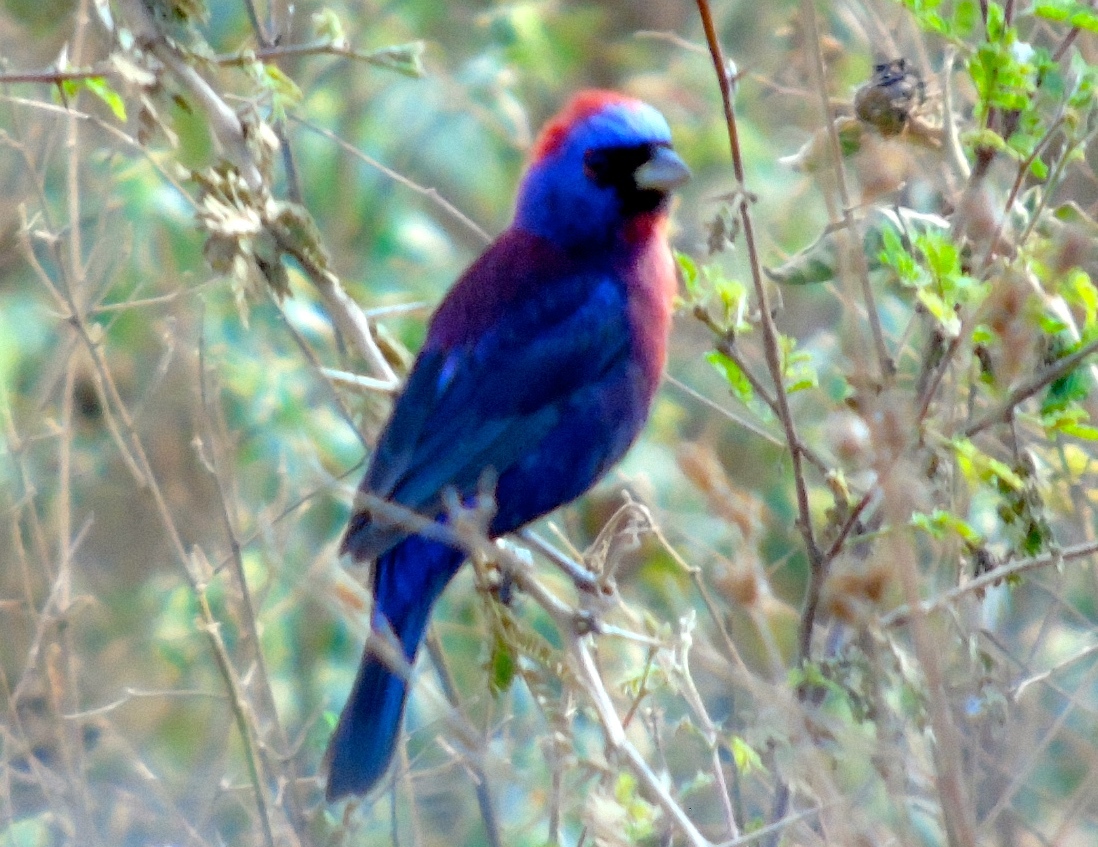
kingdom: Animalia
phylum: Chordata
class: Aves
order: Passeriformes
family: Cardinalidae
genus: Passerina
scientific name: Passerina versicolor
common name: Varied bunting
